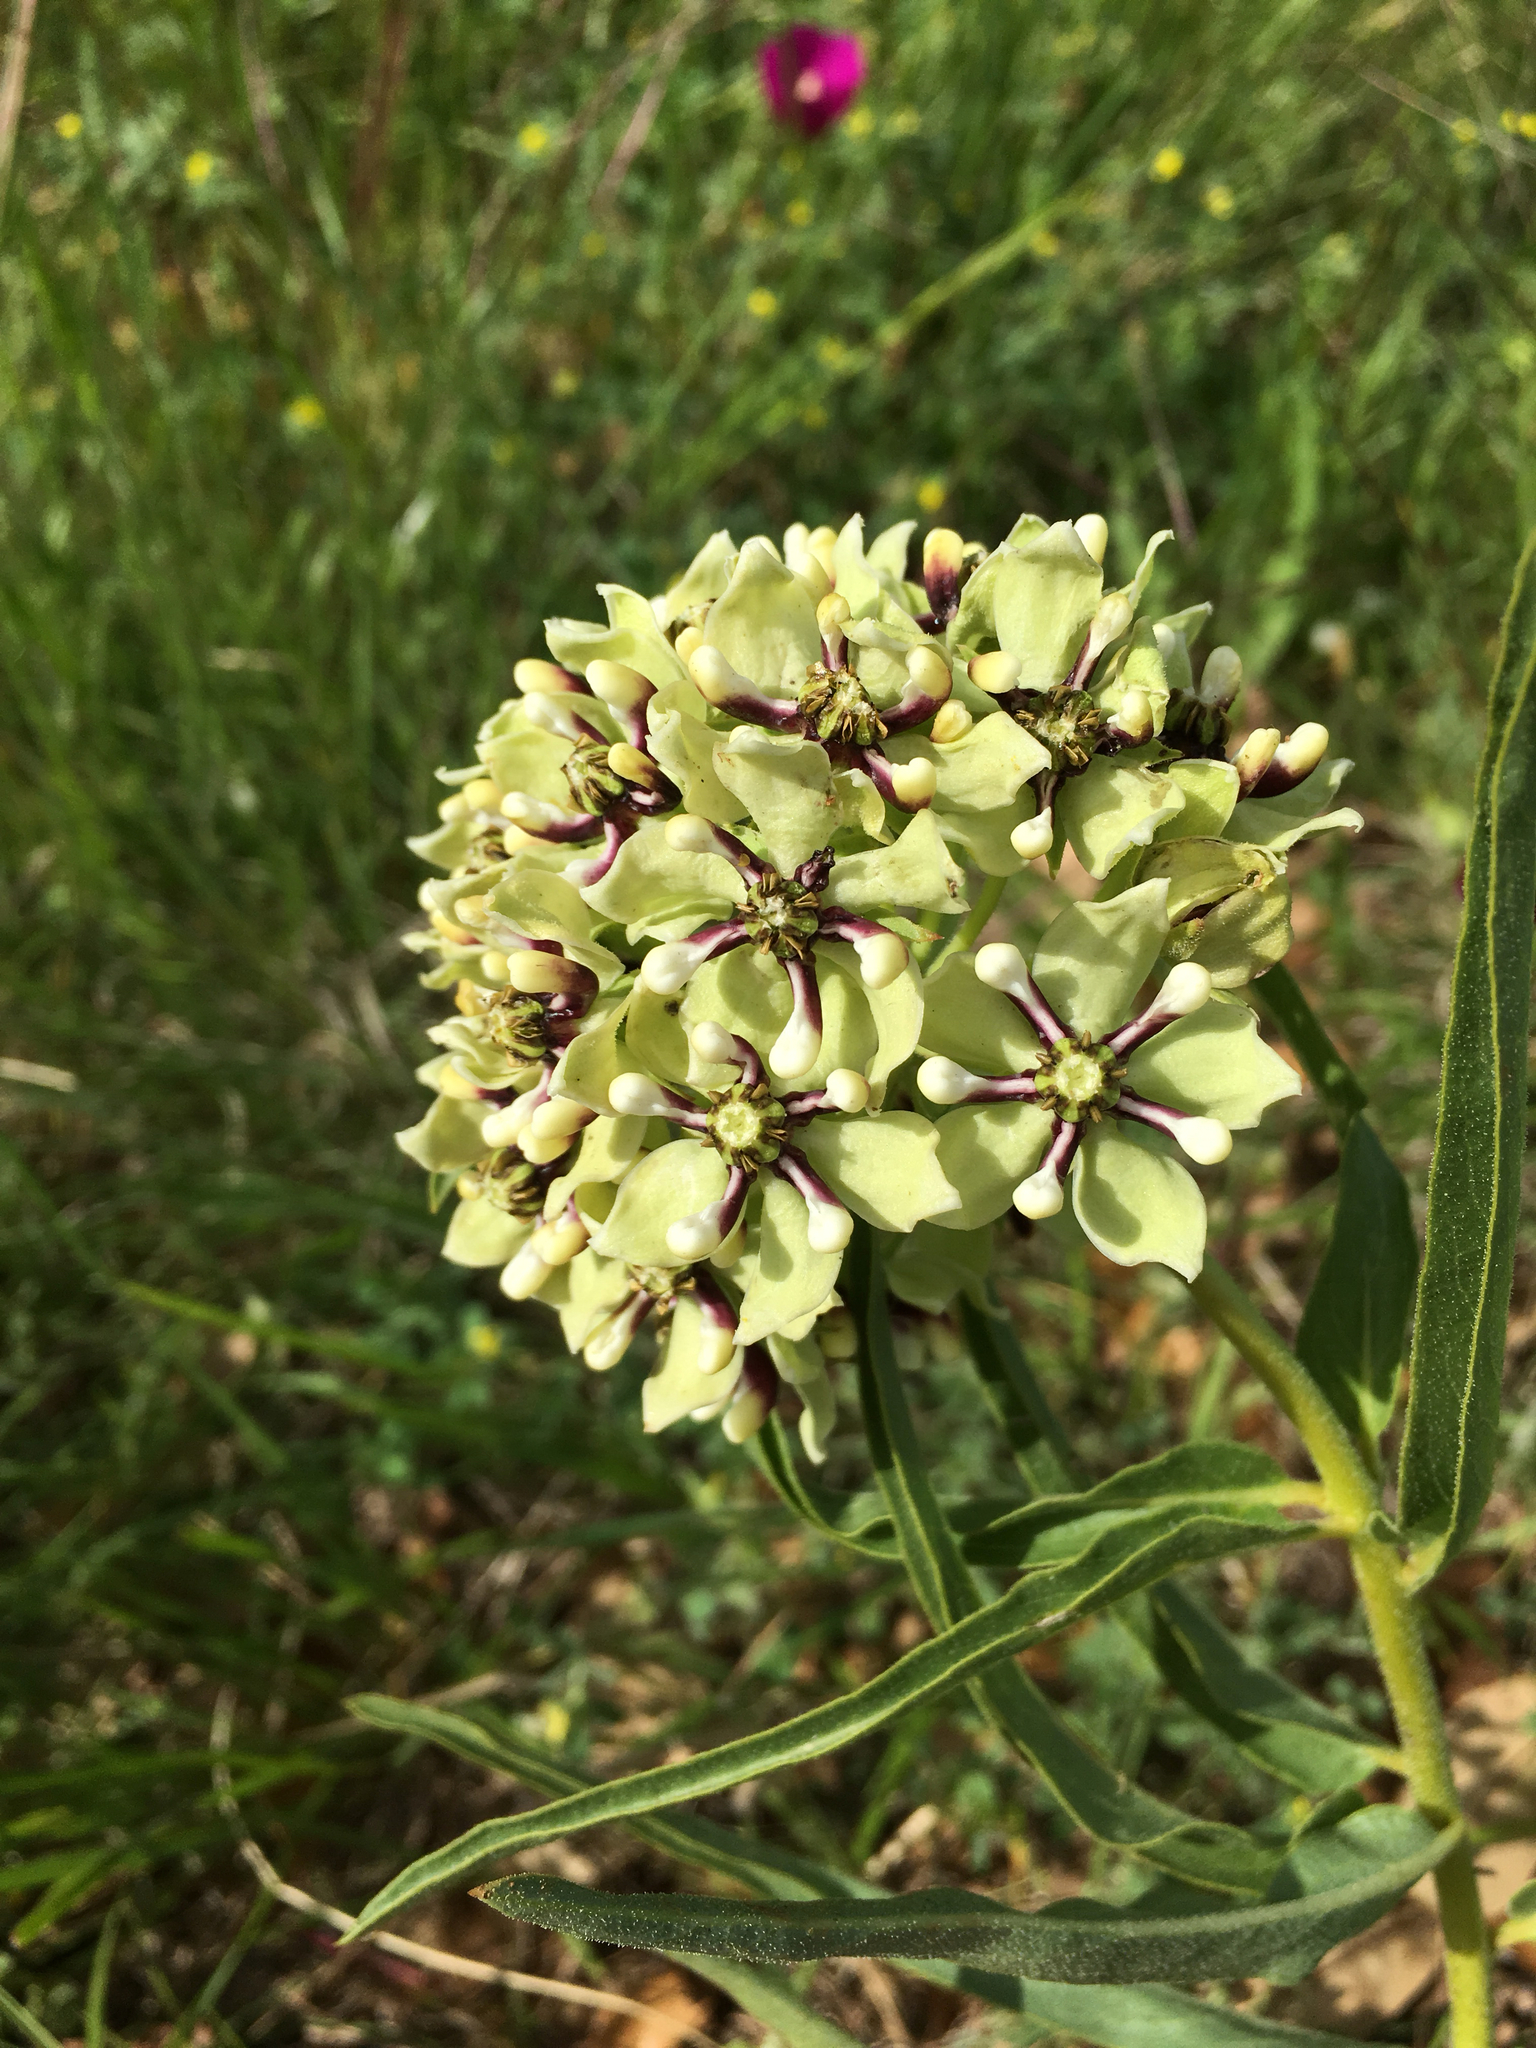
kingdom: Plantae
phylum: Tracheophyta
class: Magnoliopsida
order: Gentianales
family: Apocynaceae
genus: Asclepias
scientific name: Asclepias asperula
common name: Antelope horns
